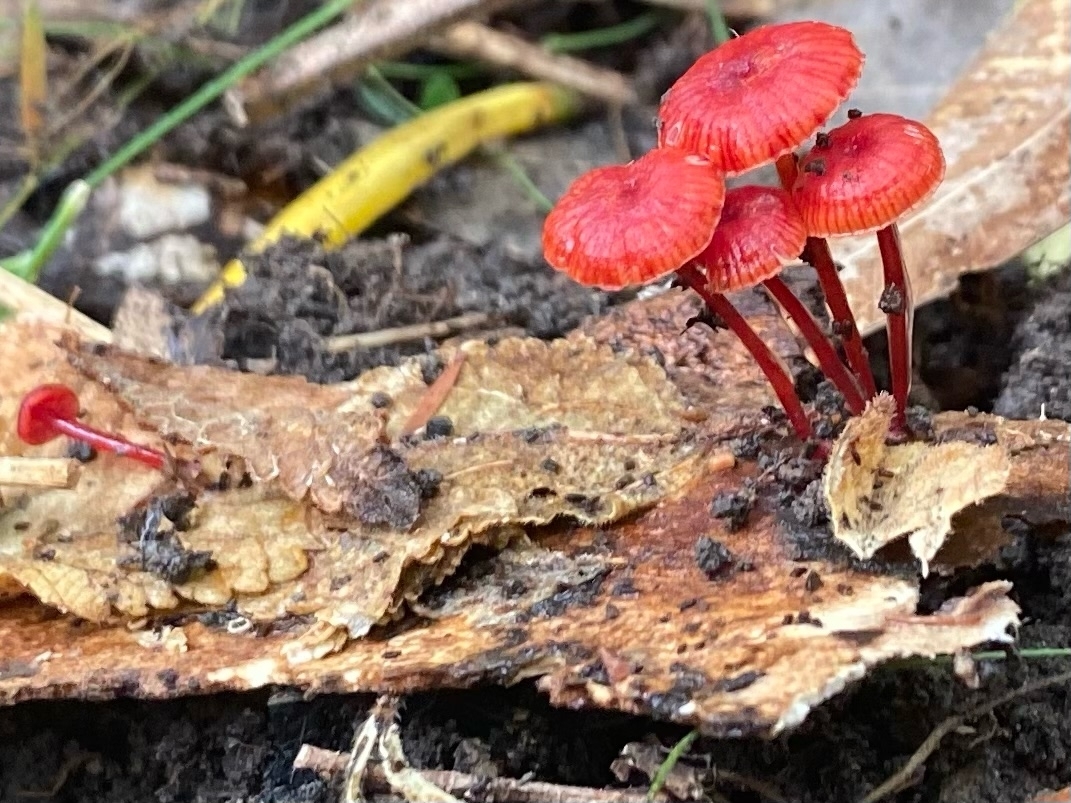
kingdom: Fungi
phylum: Basidiomycota
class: Agaricomycetes
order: Agaricales
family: Mycenaceae
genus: Cruentomycena
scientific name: Cruentomycena viscidocruenta
